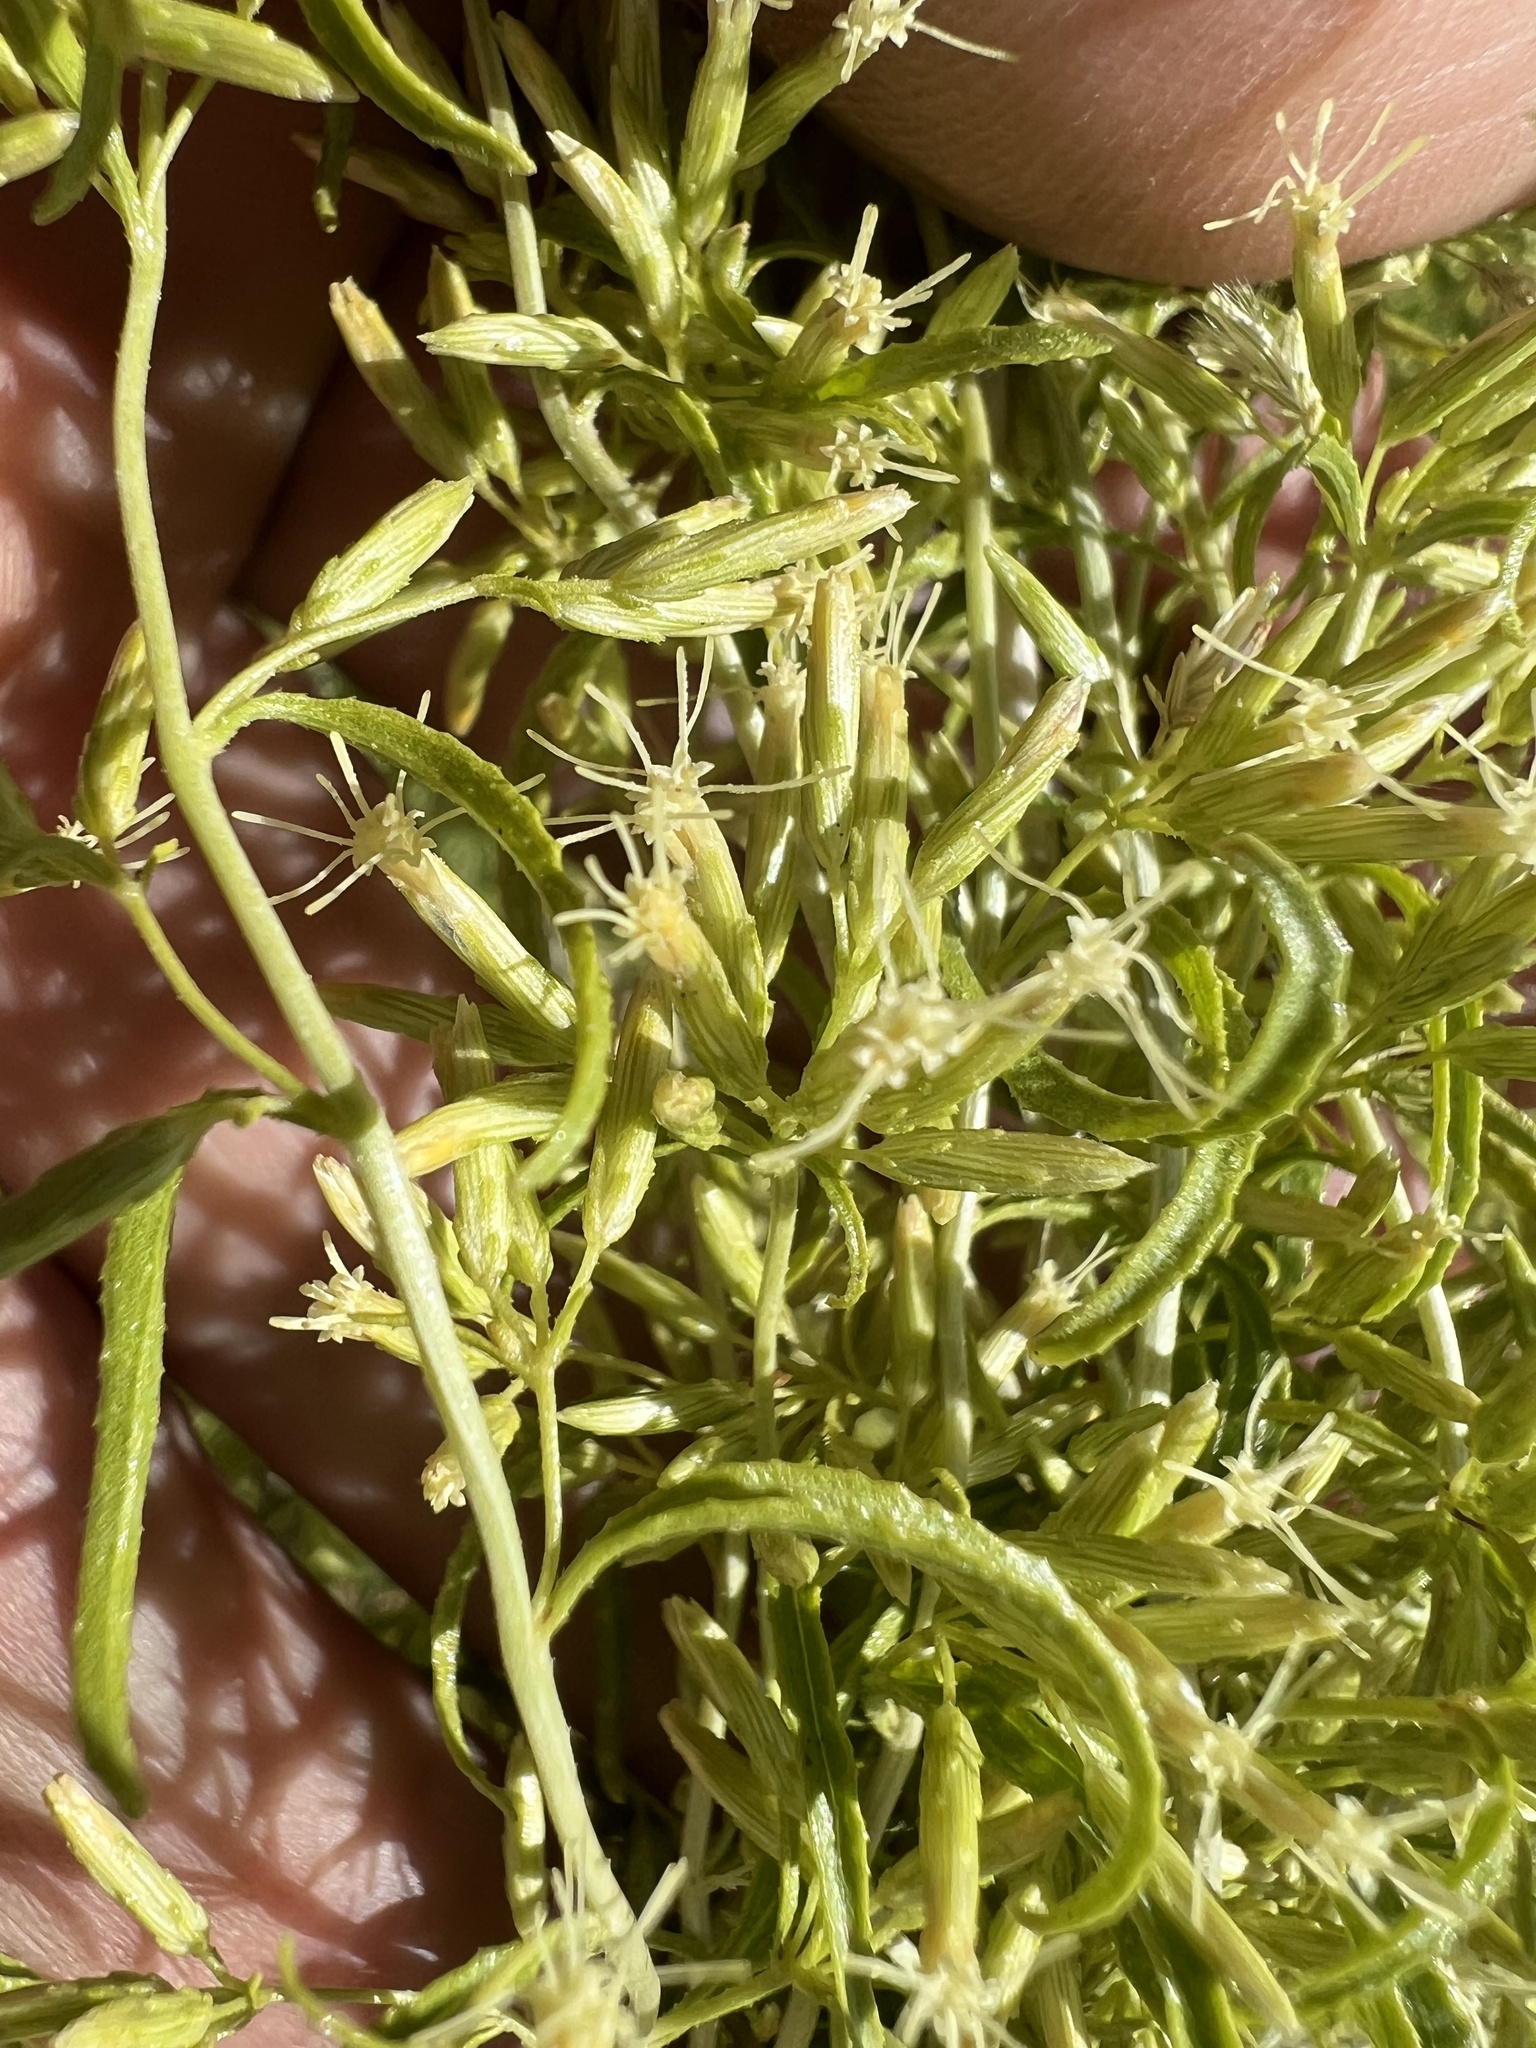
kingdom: Plantae
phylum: Tracheophyta
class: Magnoliopsida
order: Asterales
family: Asteraceae
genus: Brickellia
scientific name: Brickellia longifolia
